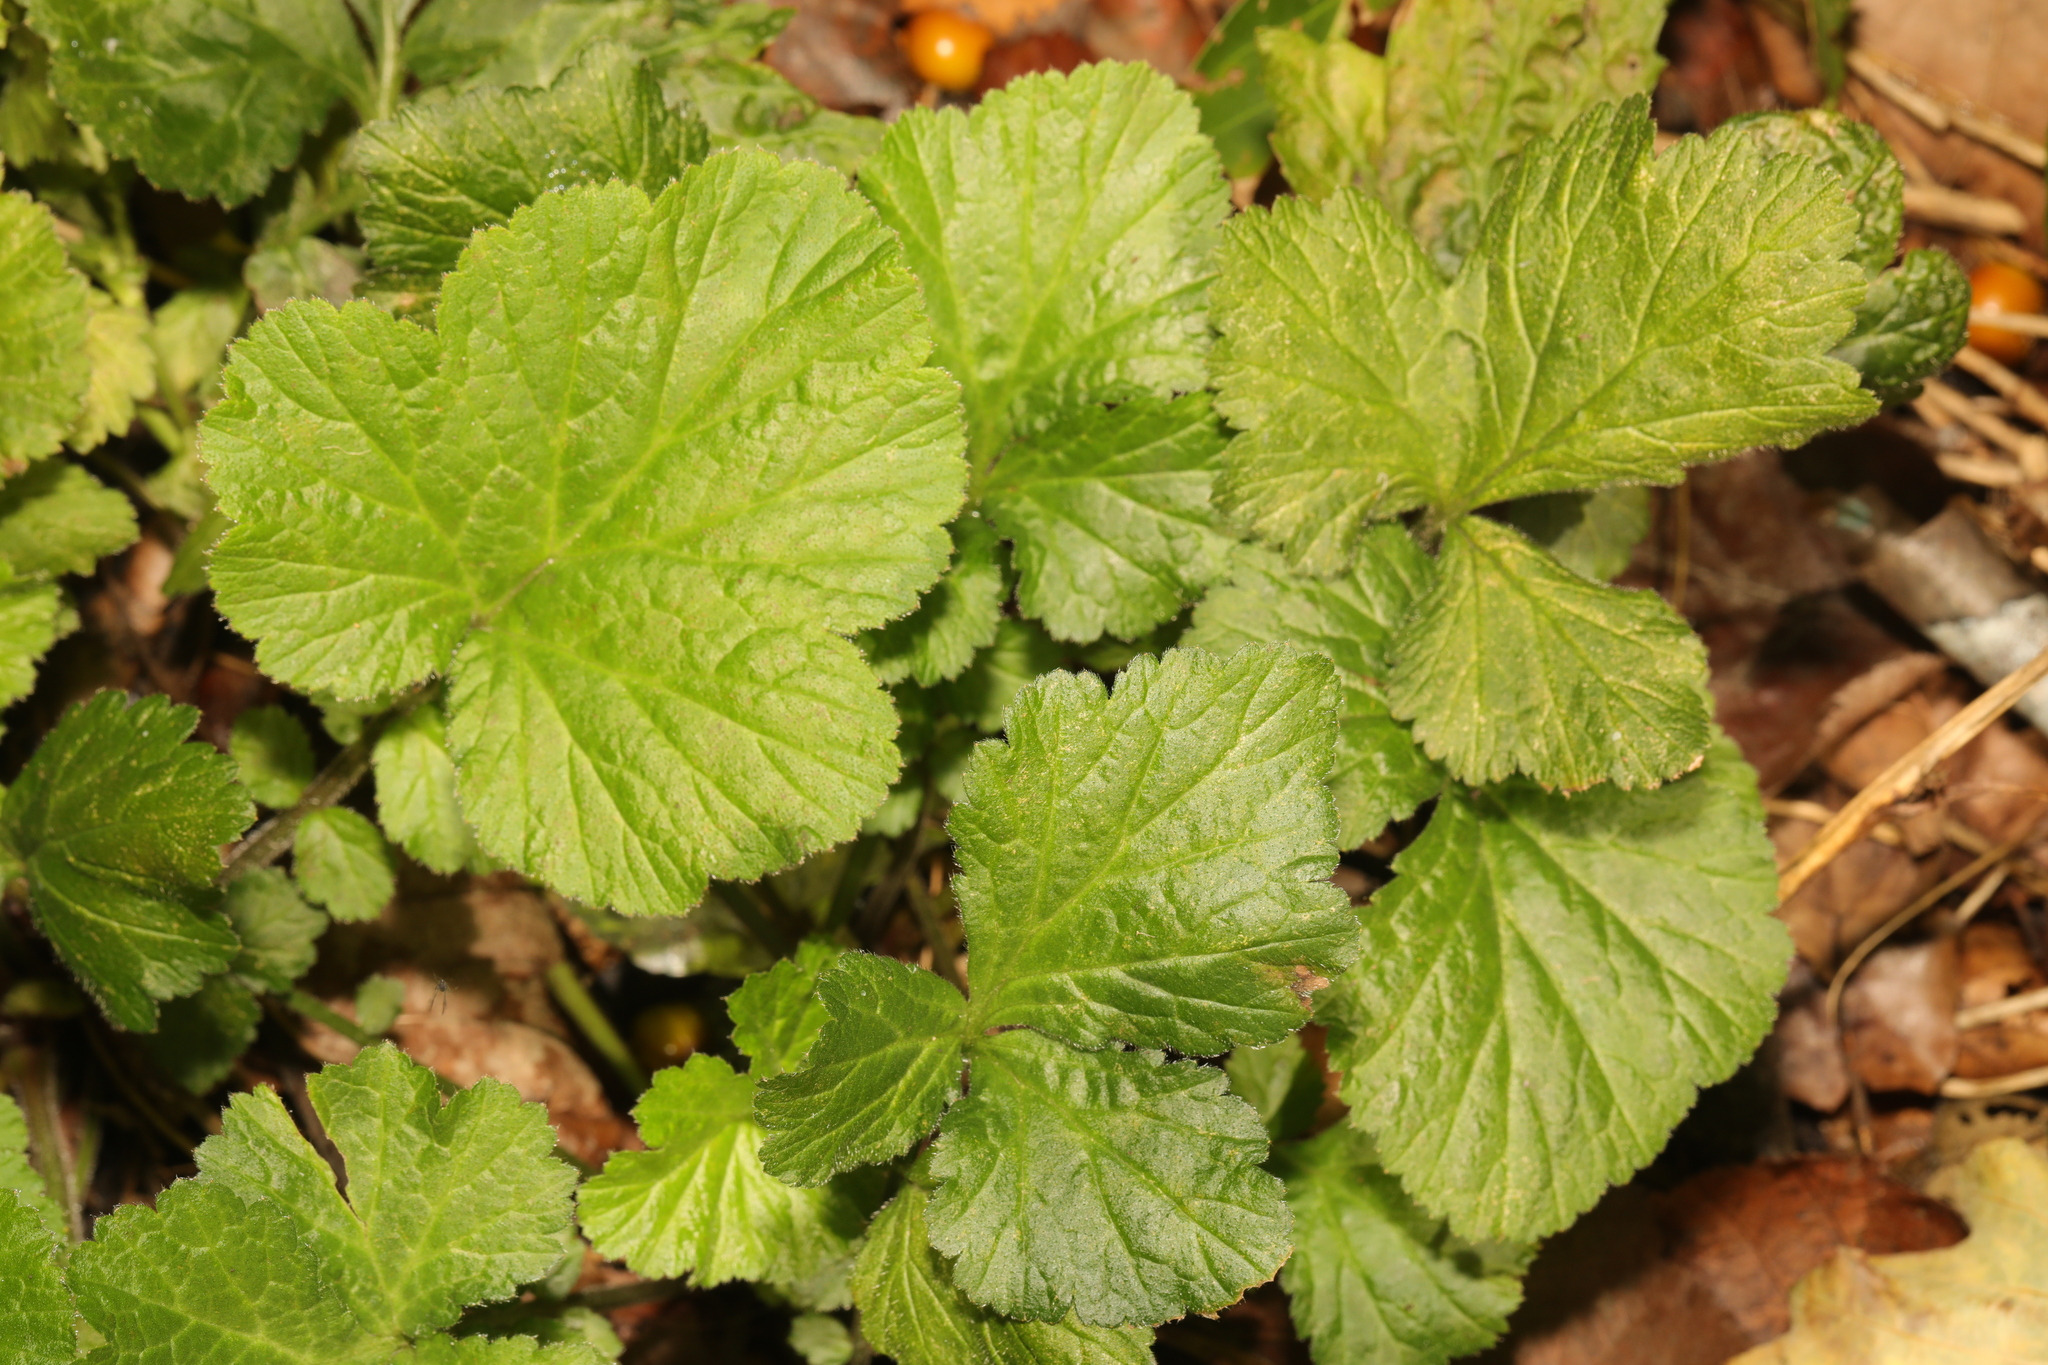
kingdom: Plantae
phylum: Tracheophyta
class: Magnoliopsida
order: Rosales
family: Rosaceae
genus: Geum
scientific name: Geum urbanum
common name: Wood avens
